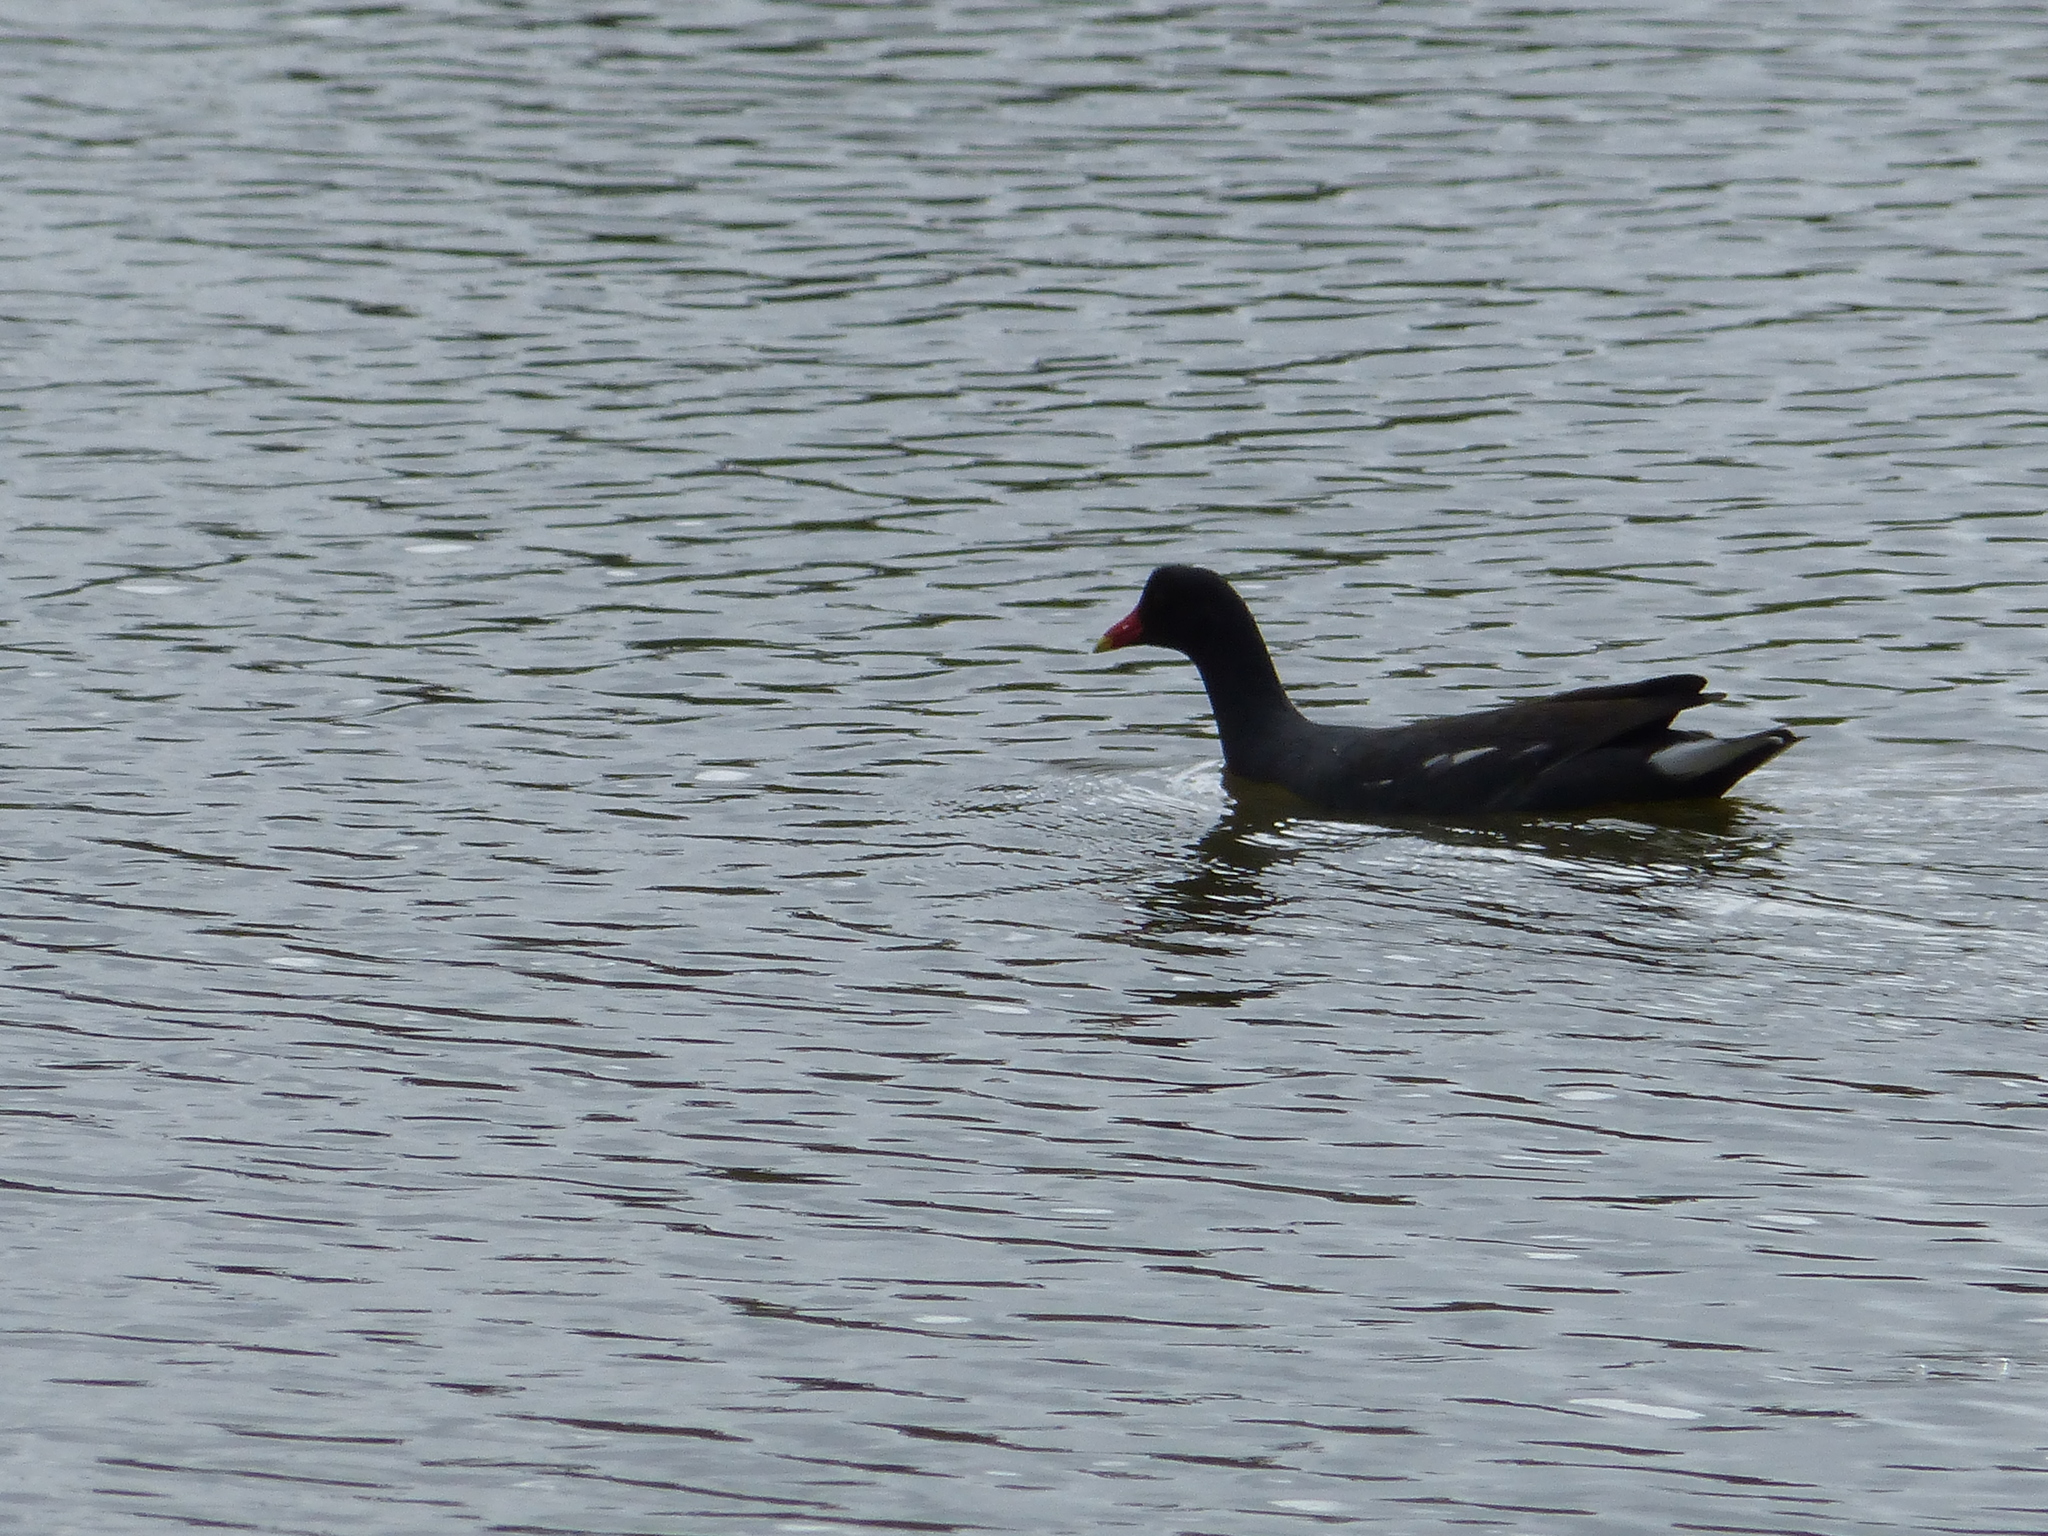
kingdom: Animalia
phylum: Chordata
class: Aves
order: Gruiformes
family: Rallidae
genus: Gallinula
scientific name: Gallinula chloropus
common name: Common moorhen
